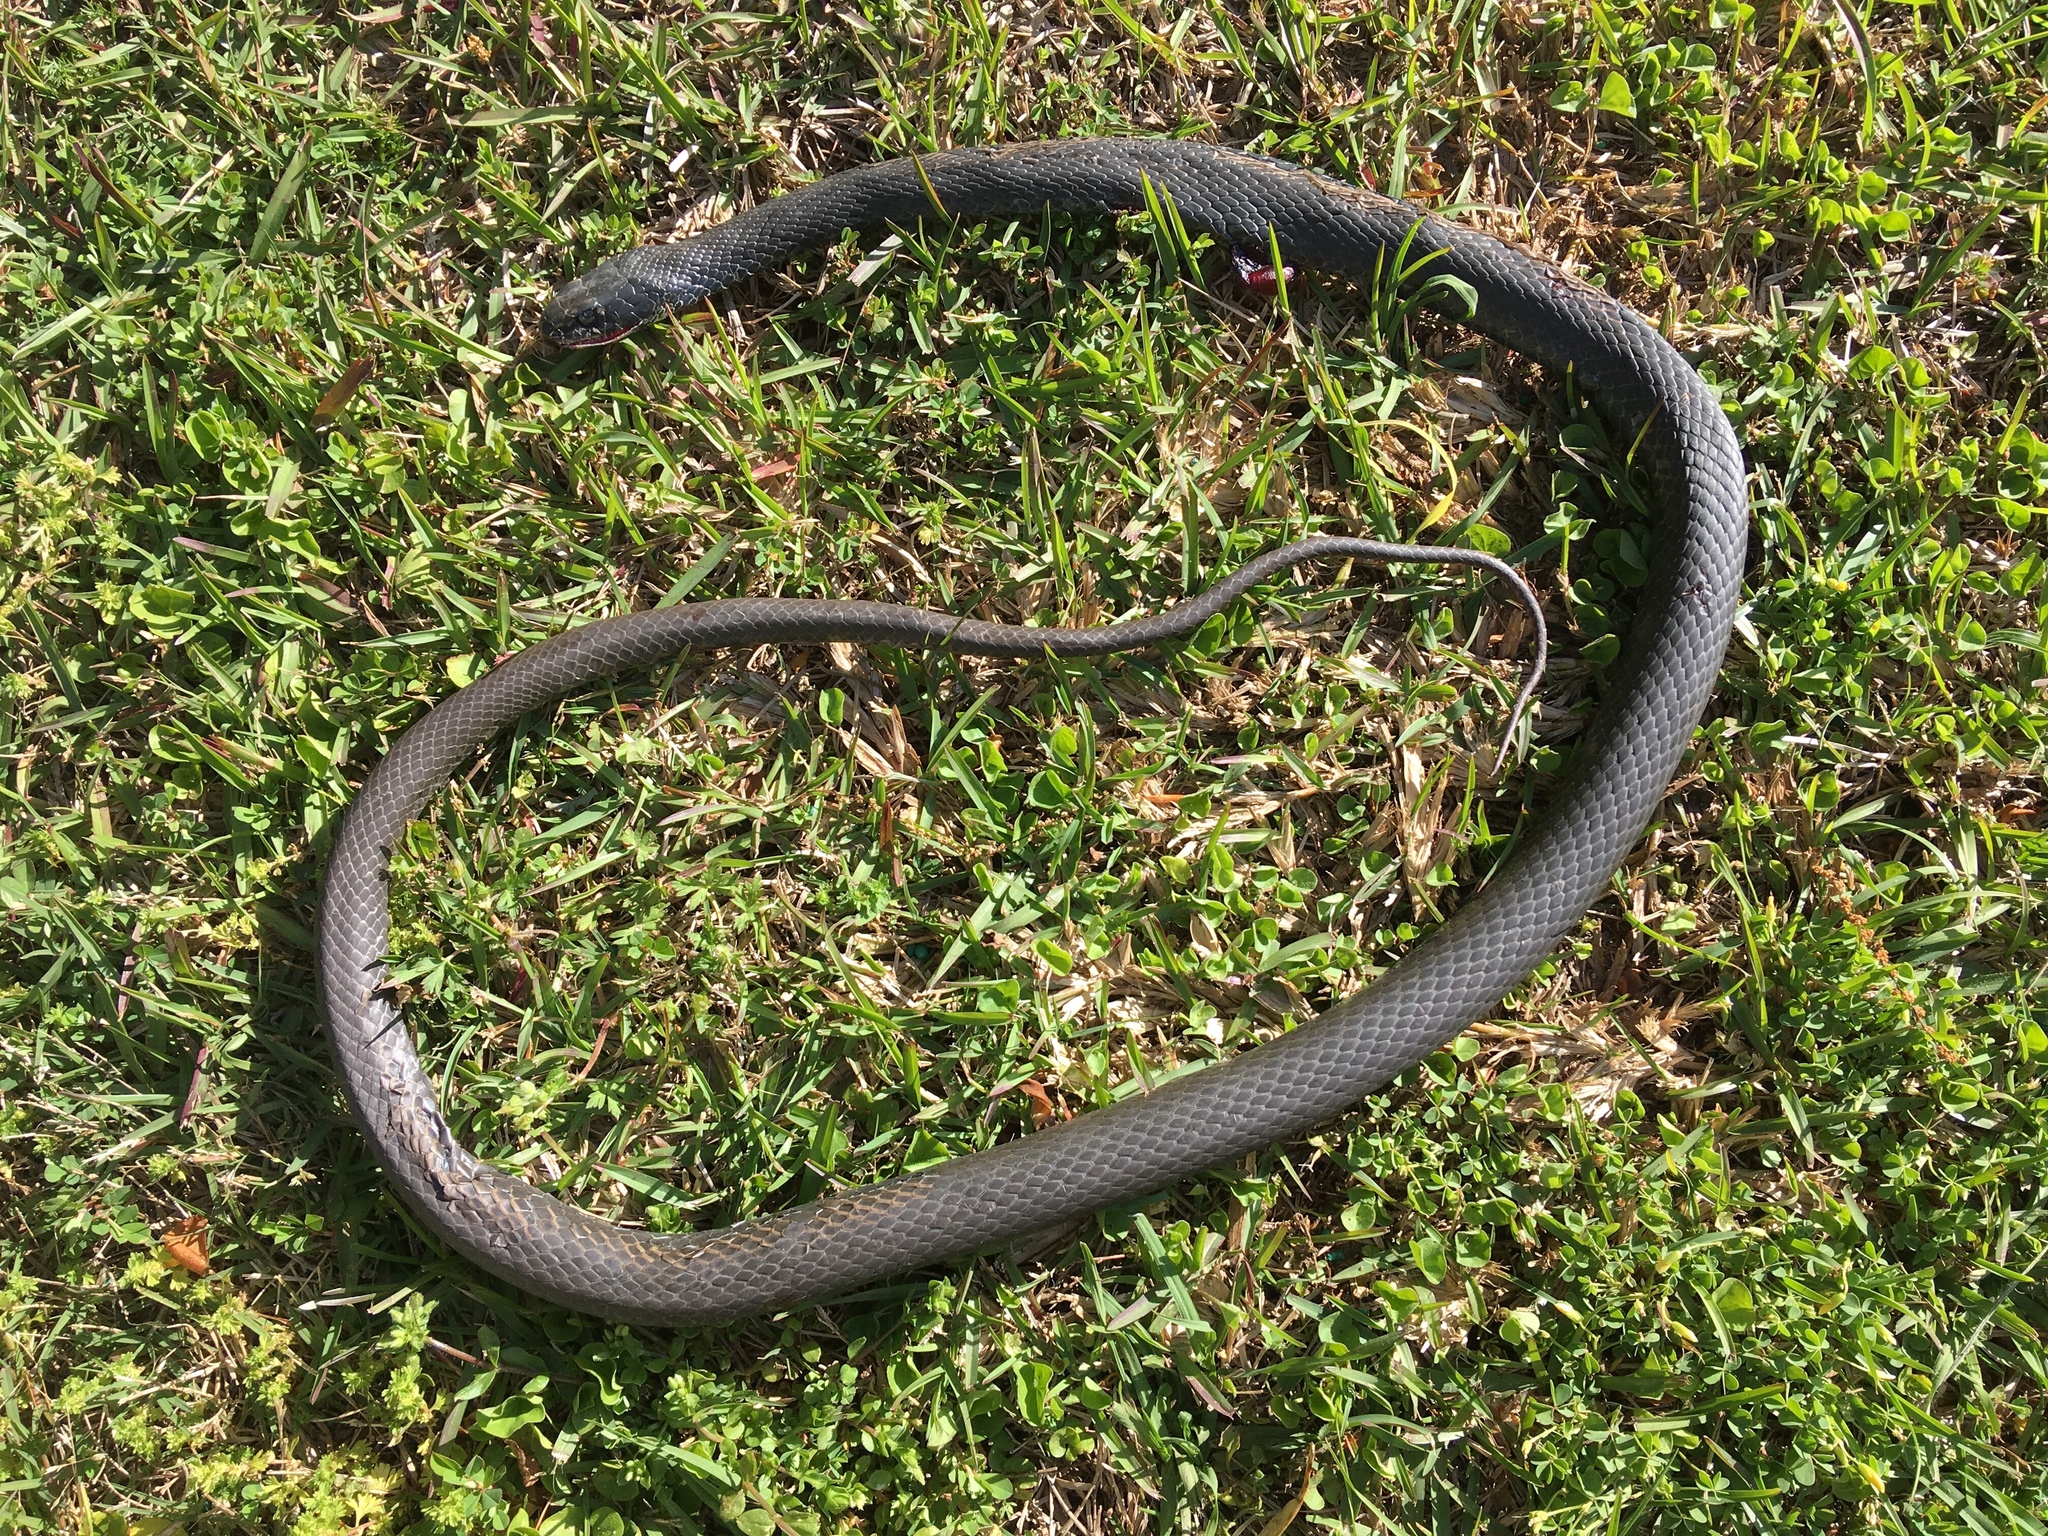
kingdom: Animalia
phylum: Chordata
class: Squamata
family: Colubridae
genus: Coluber
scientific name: Coluber constrictor
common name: Eastern racer
